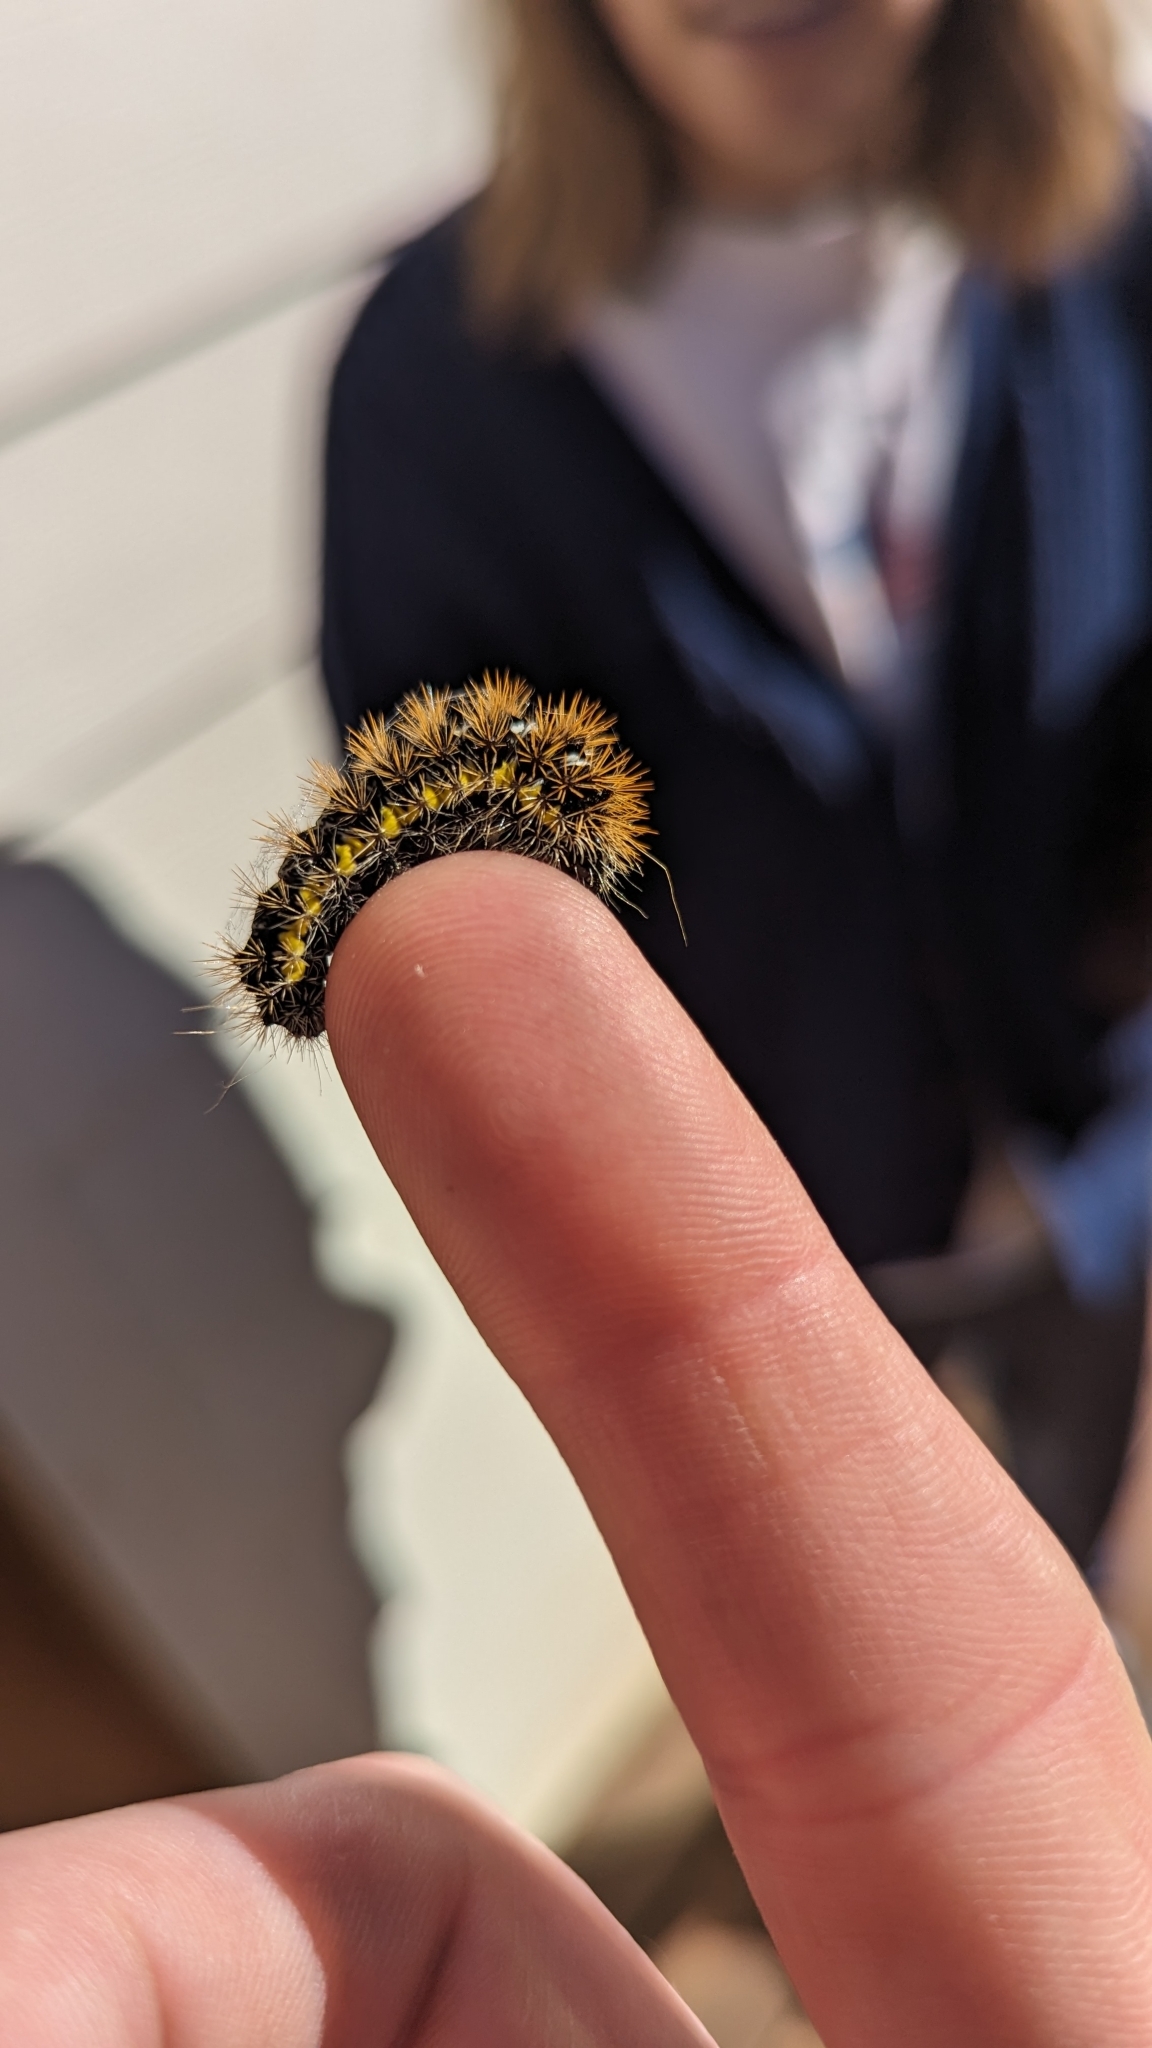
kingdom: Animalia
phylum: Arthropoda
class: Insecta
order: Lepidoptera
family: Noctuidae
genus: Acronicta
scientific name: Acronicta oblinita
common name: Smeared dagger
